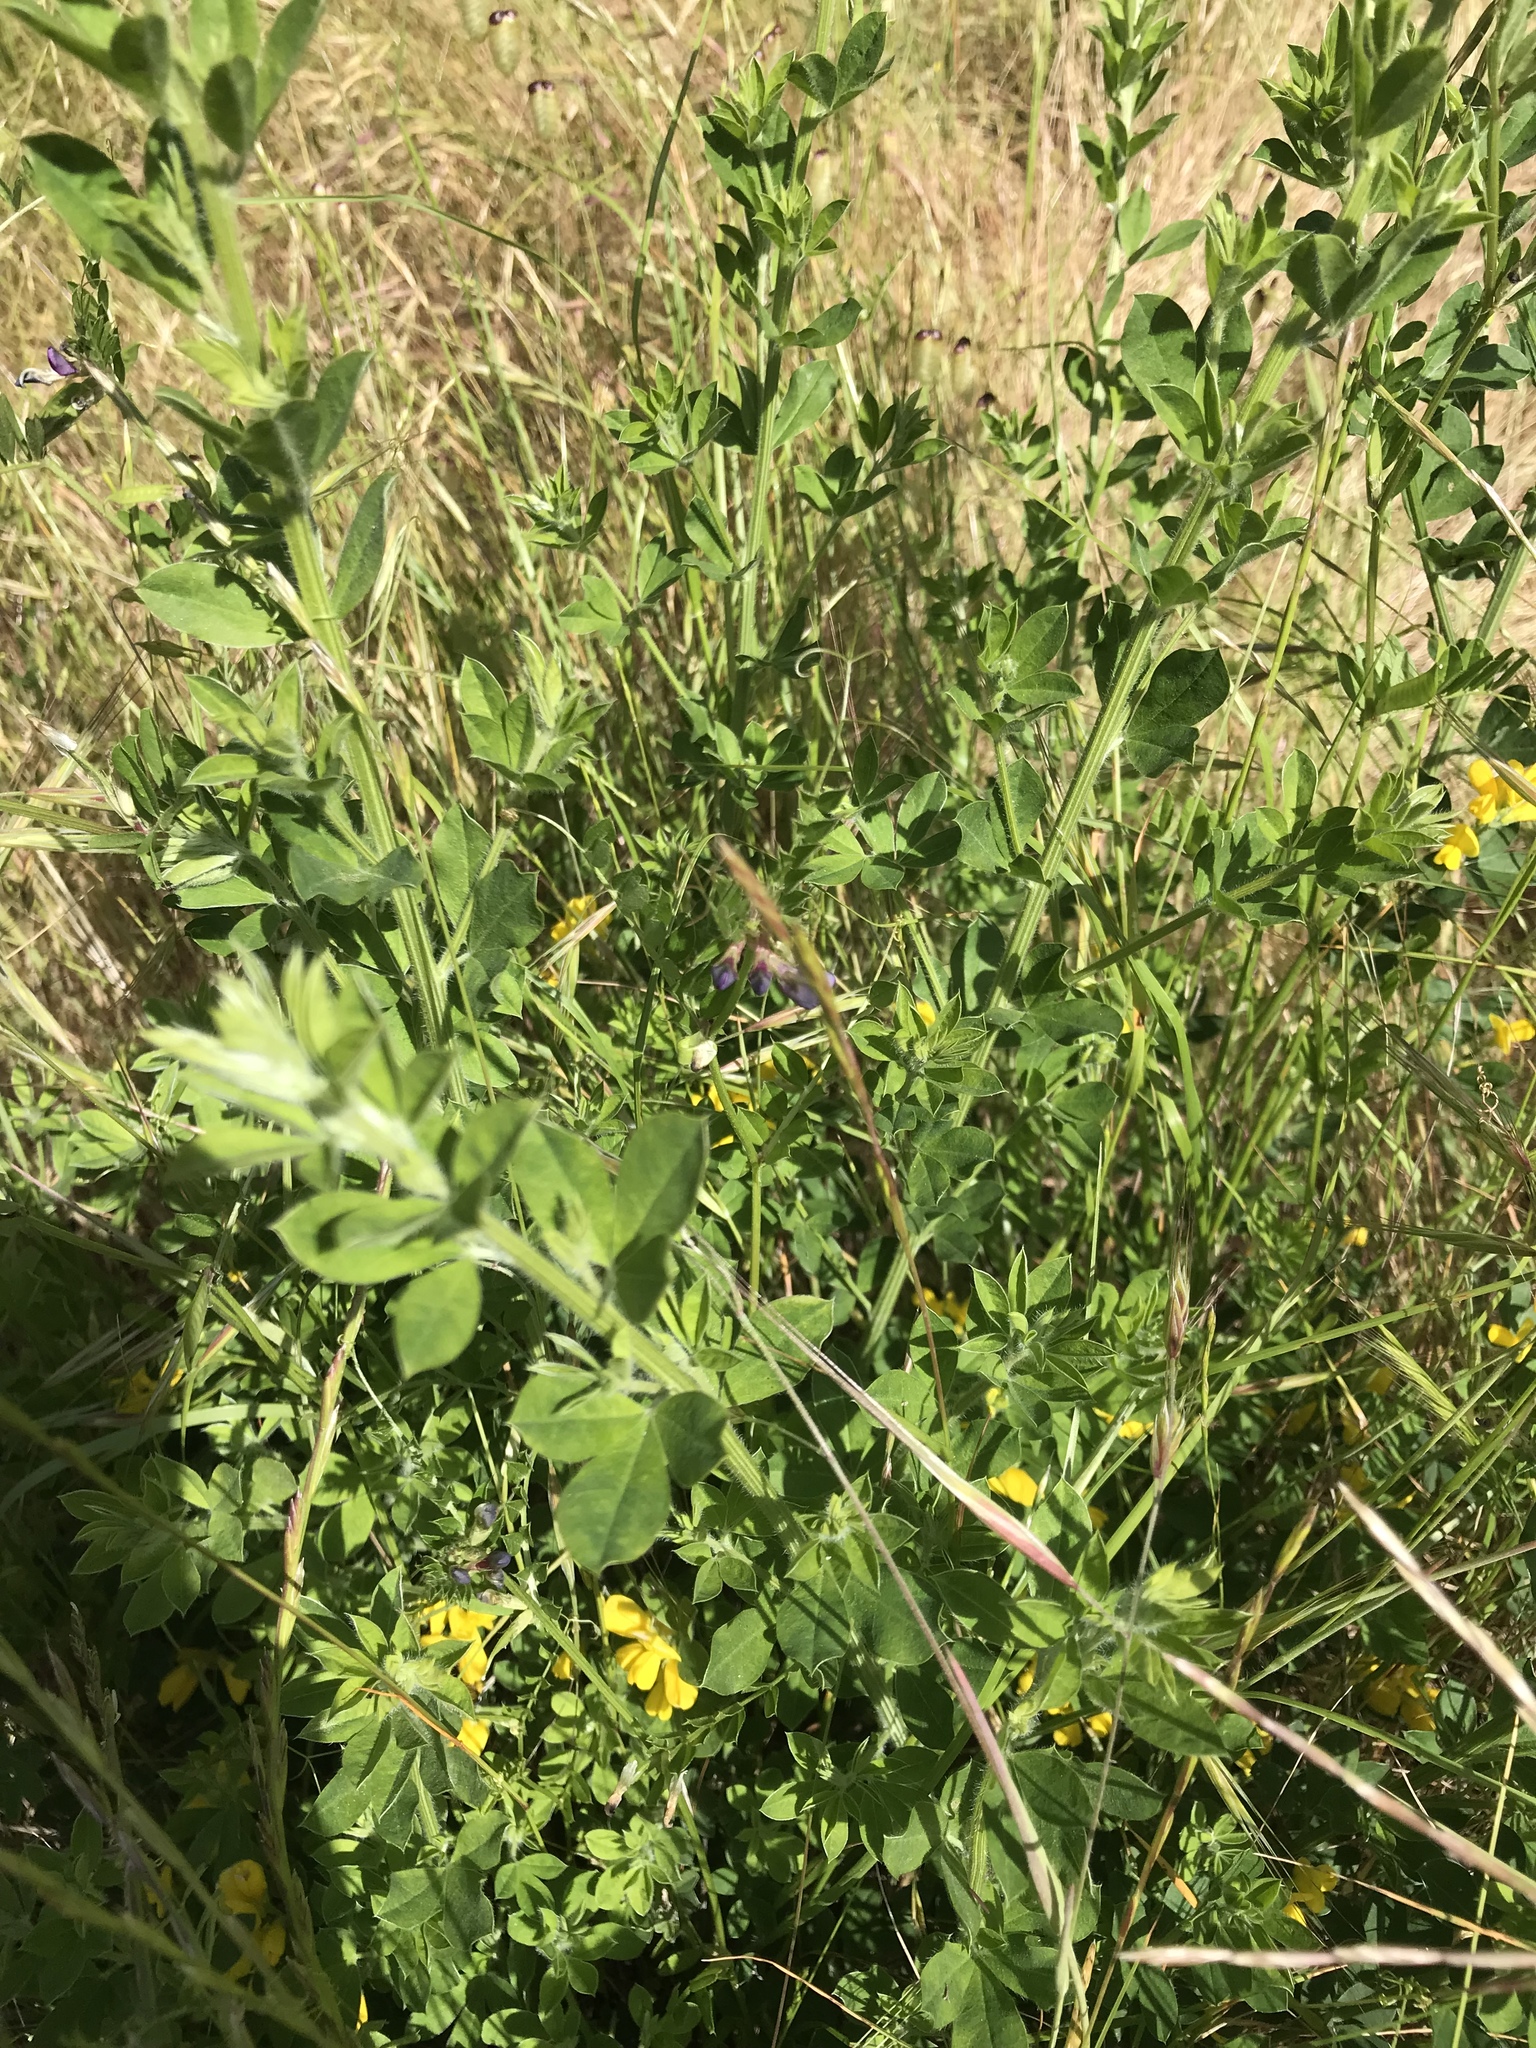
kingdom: Plantae
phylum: Tracheophyta
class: Magnoliopsida
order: Fabales
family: Fabaceae
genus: Genista
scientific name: Genista monspessulana
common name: Montpellier broom
